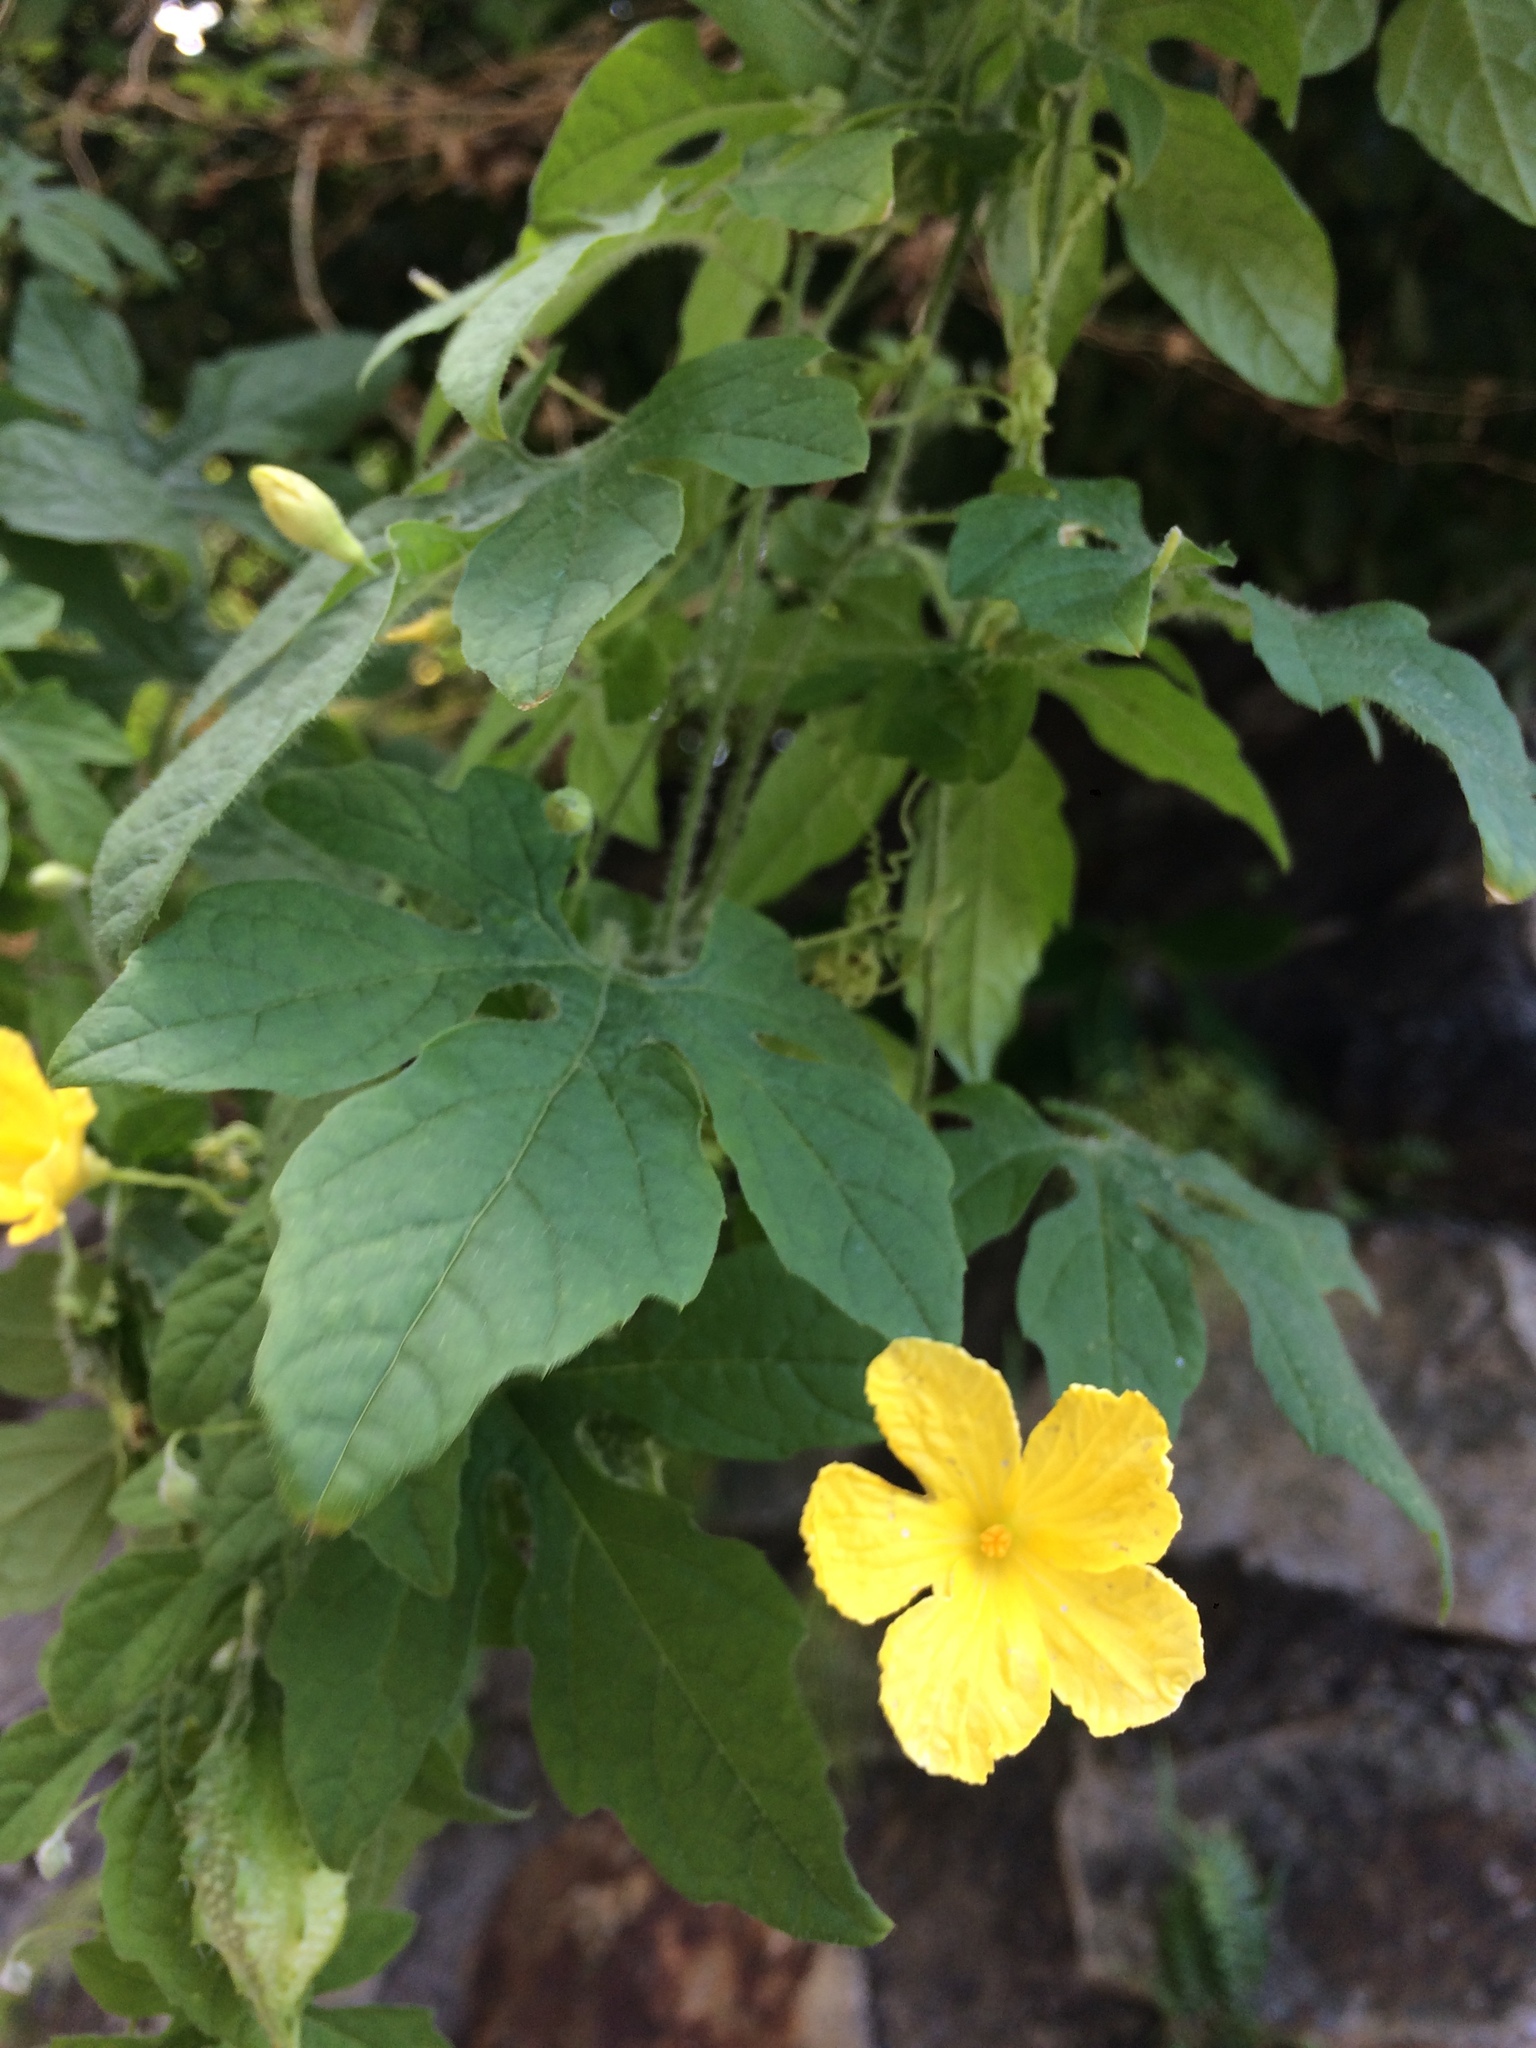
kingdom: Plantae
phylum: Tracheophyta
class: Magnoliopsida
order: Cucurbitales
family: Cucurbitaceae
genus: Momordica
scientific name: Momordica charantia
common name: Balsampear
